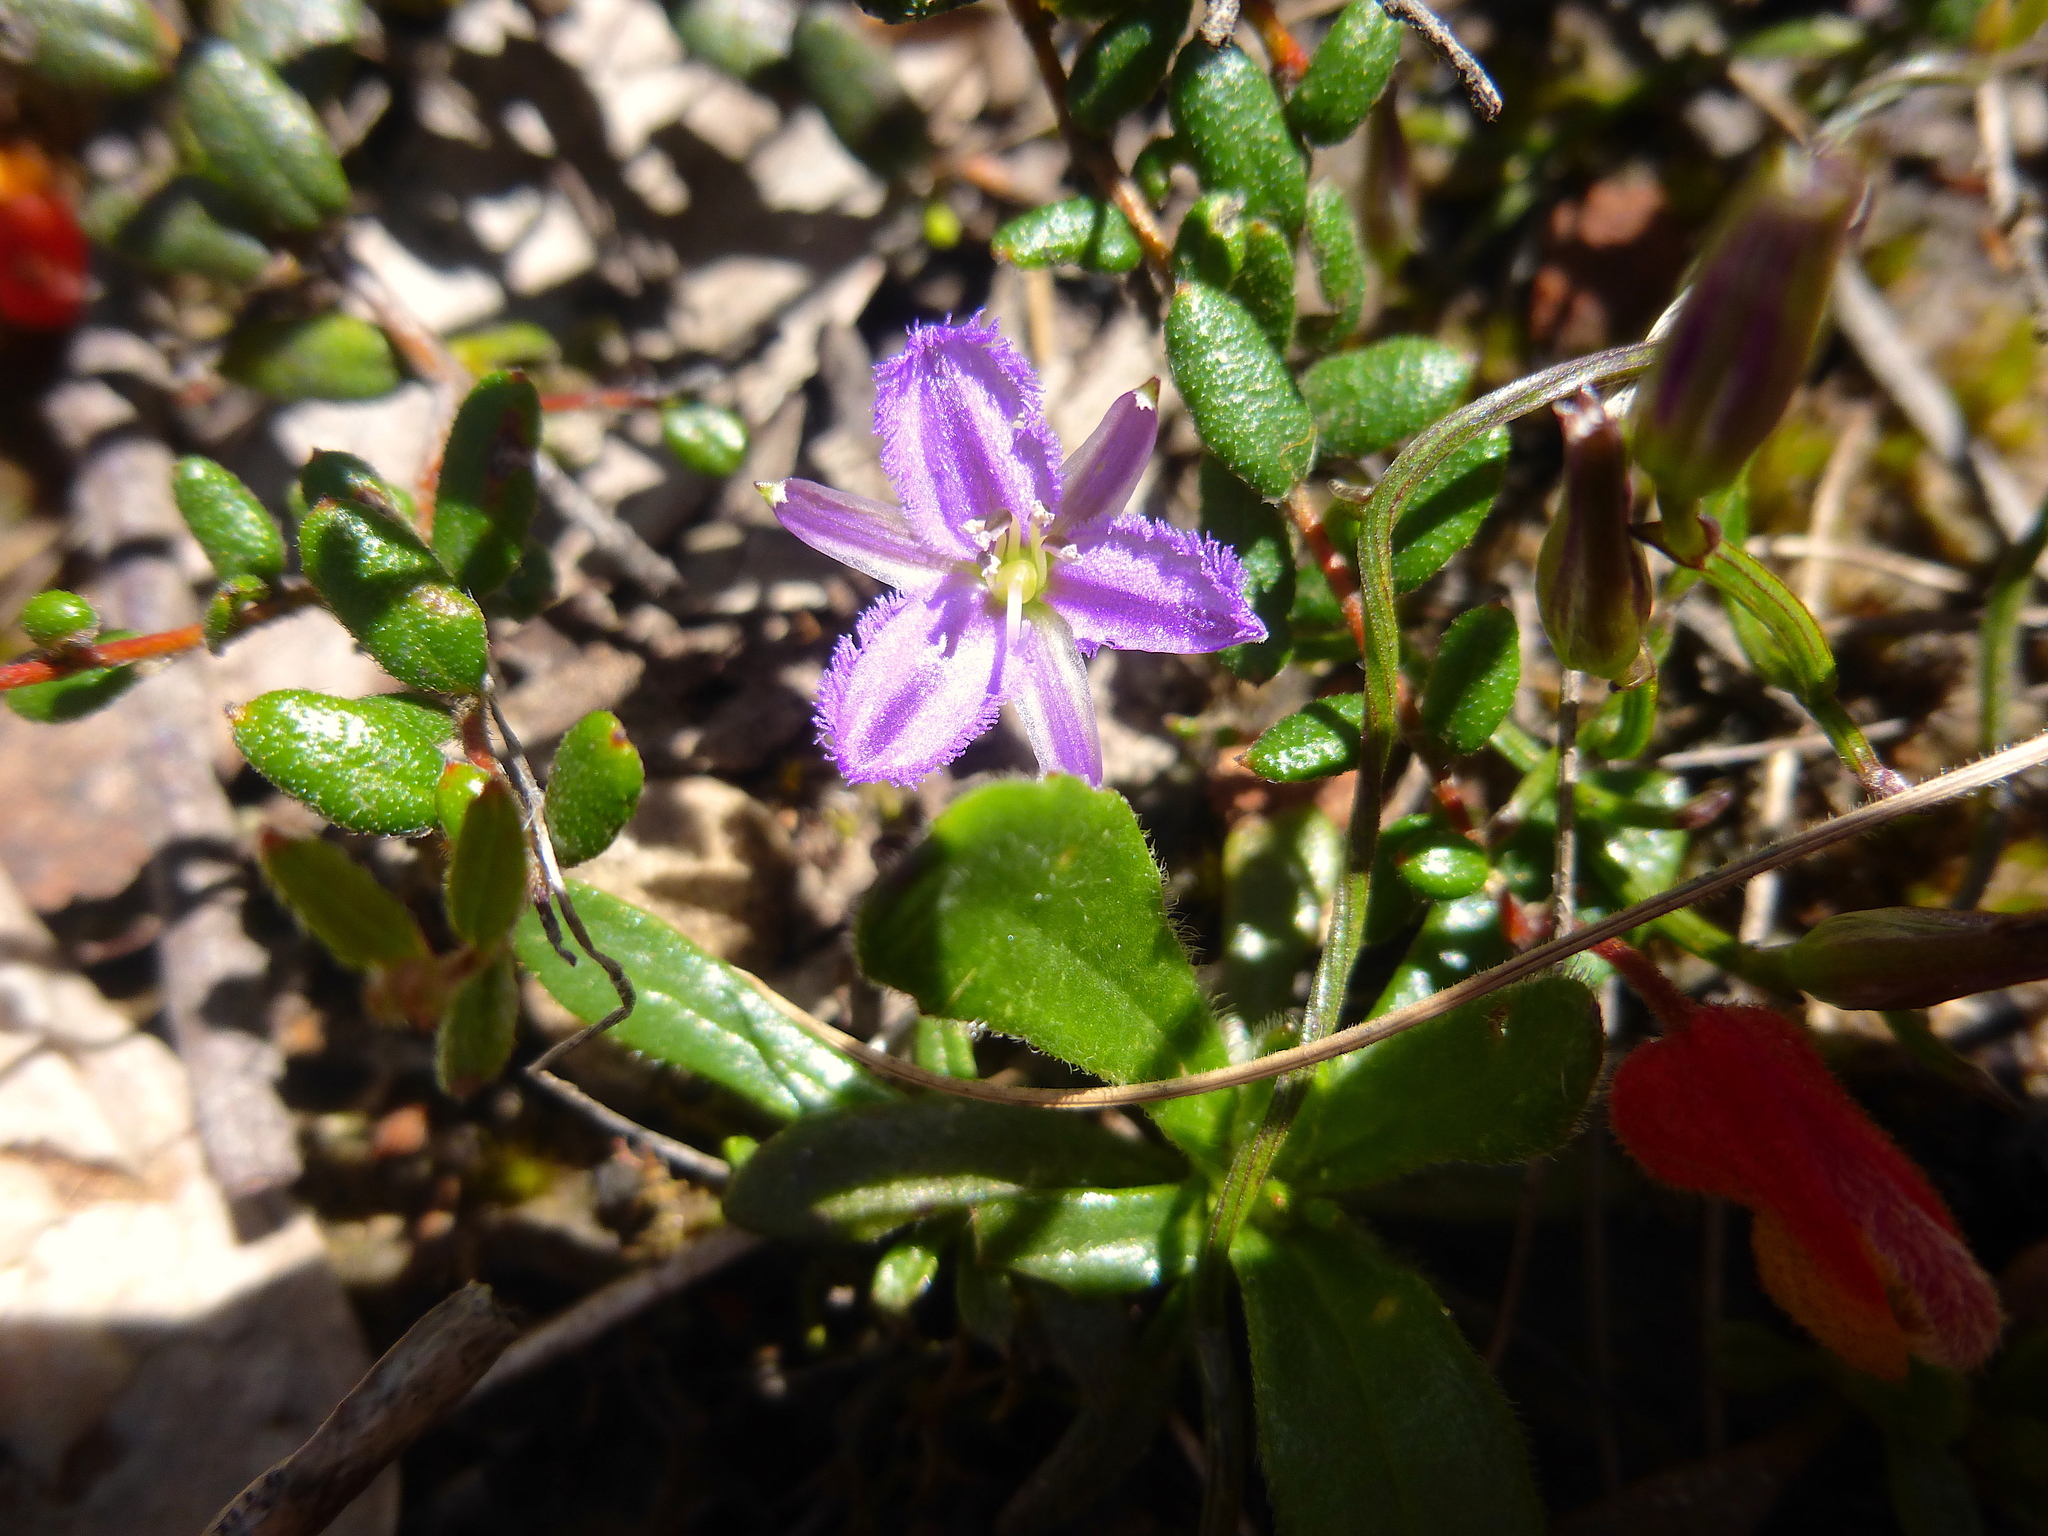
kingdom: Plantae
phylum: Tracheophyta
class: Liliopsida
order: Asparagales
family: Asparagaceae
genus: Thysanotus
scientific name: Thysanotus patersonii
